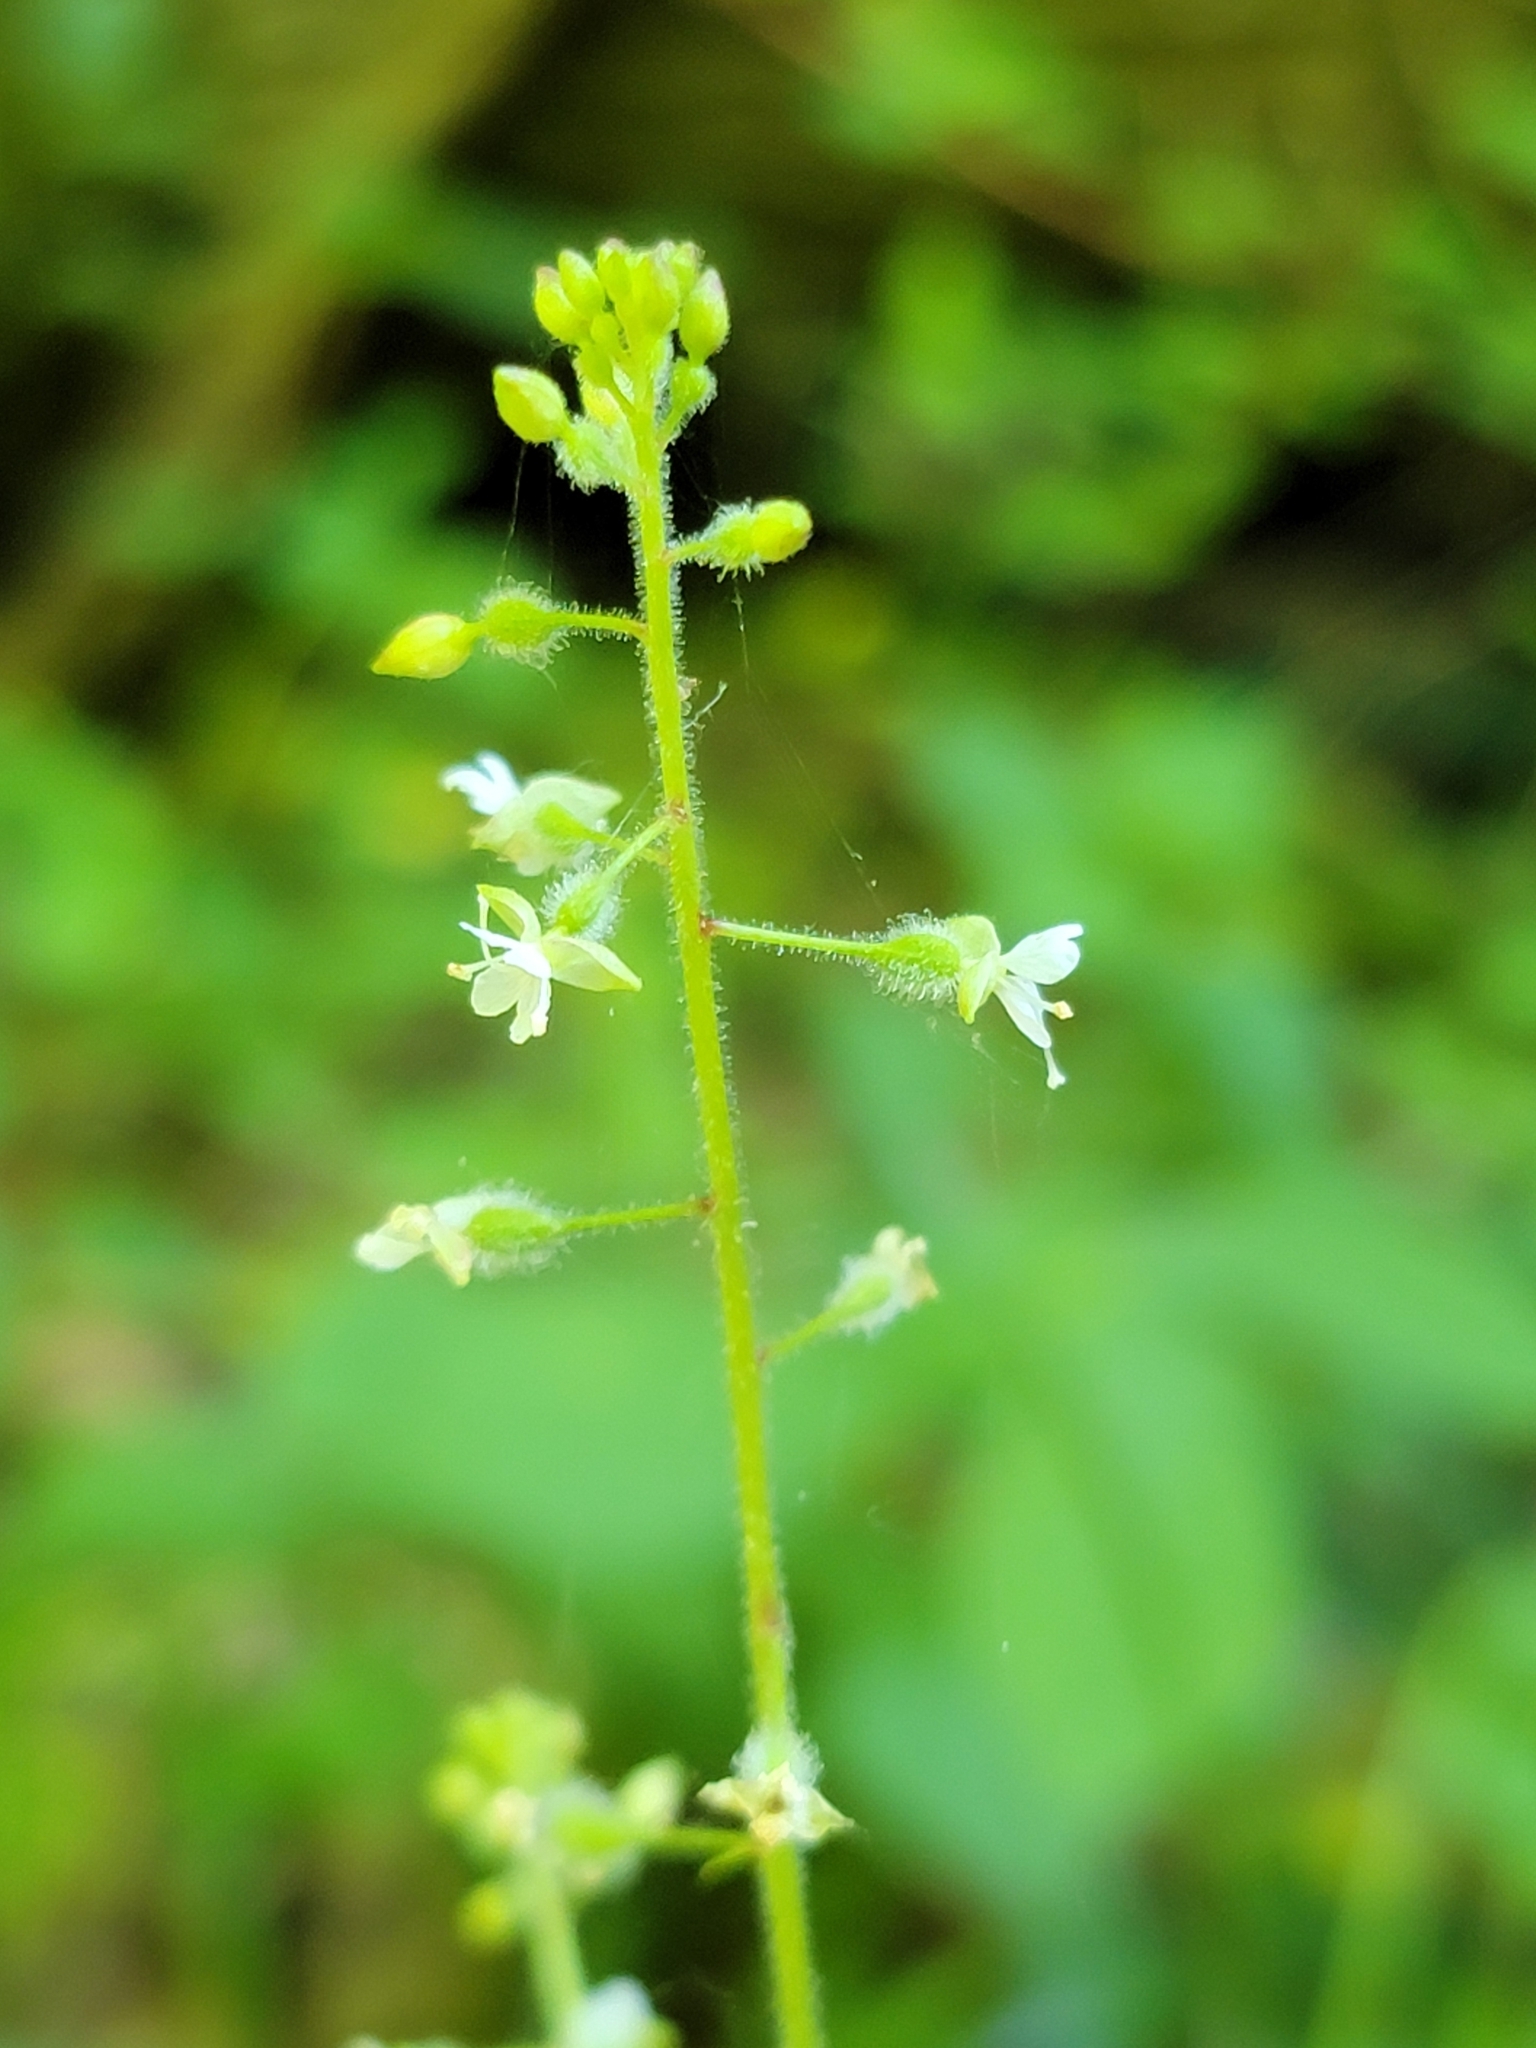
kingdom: Plantae
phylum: Tracheophyta
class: Magnoliopsida
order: Myrtales
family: Onagraceae
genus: Circaea
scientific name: Circaea canadensis
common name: Broad-leaved enchanter's nightshade
